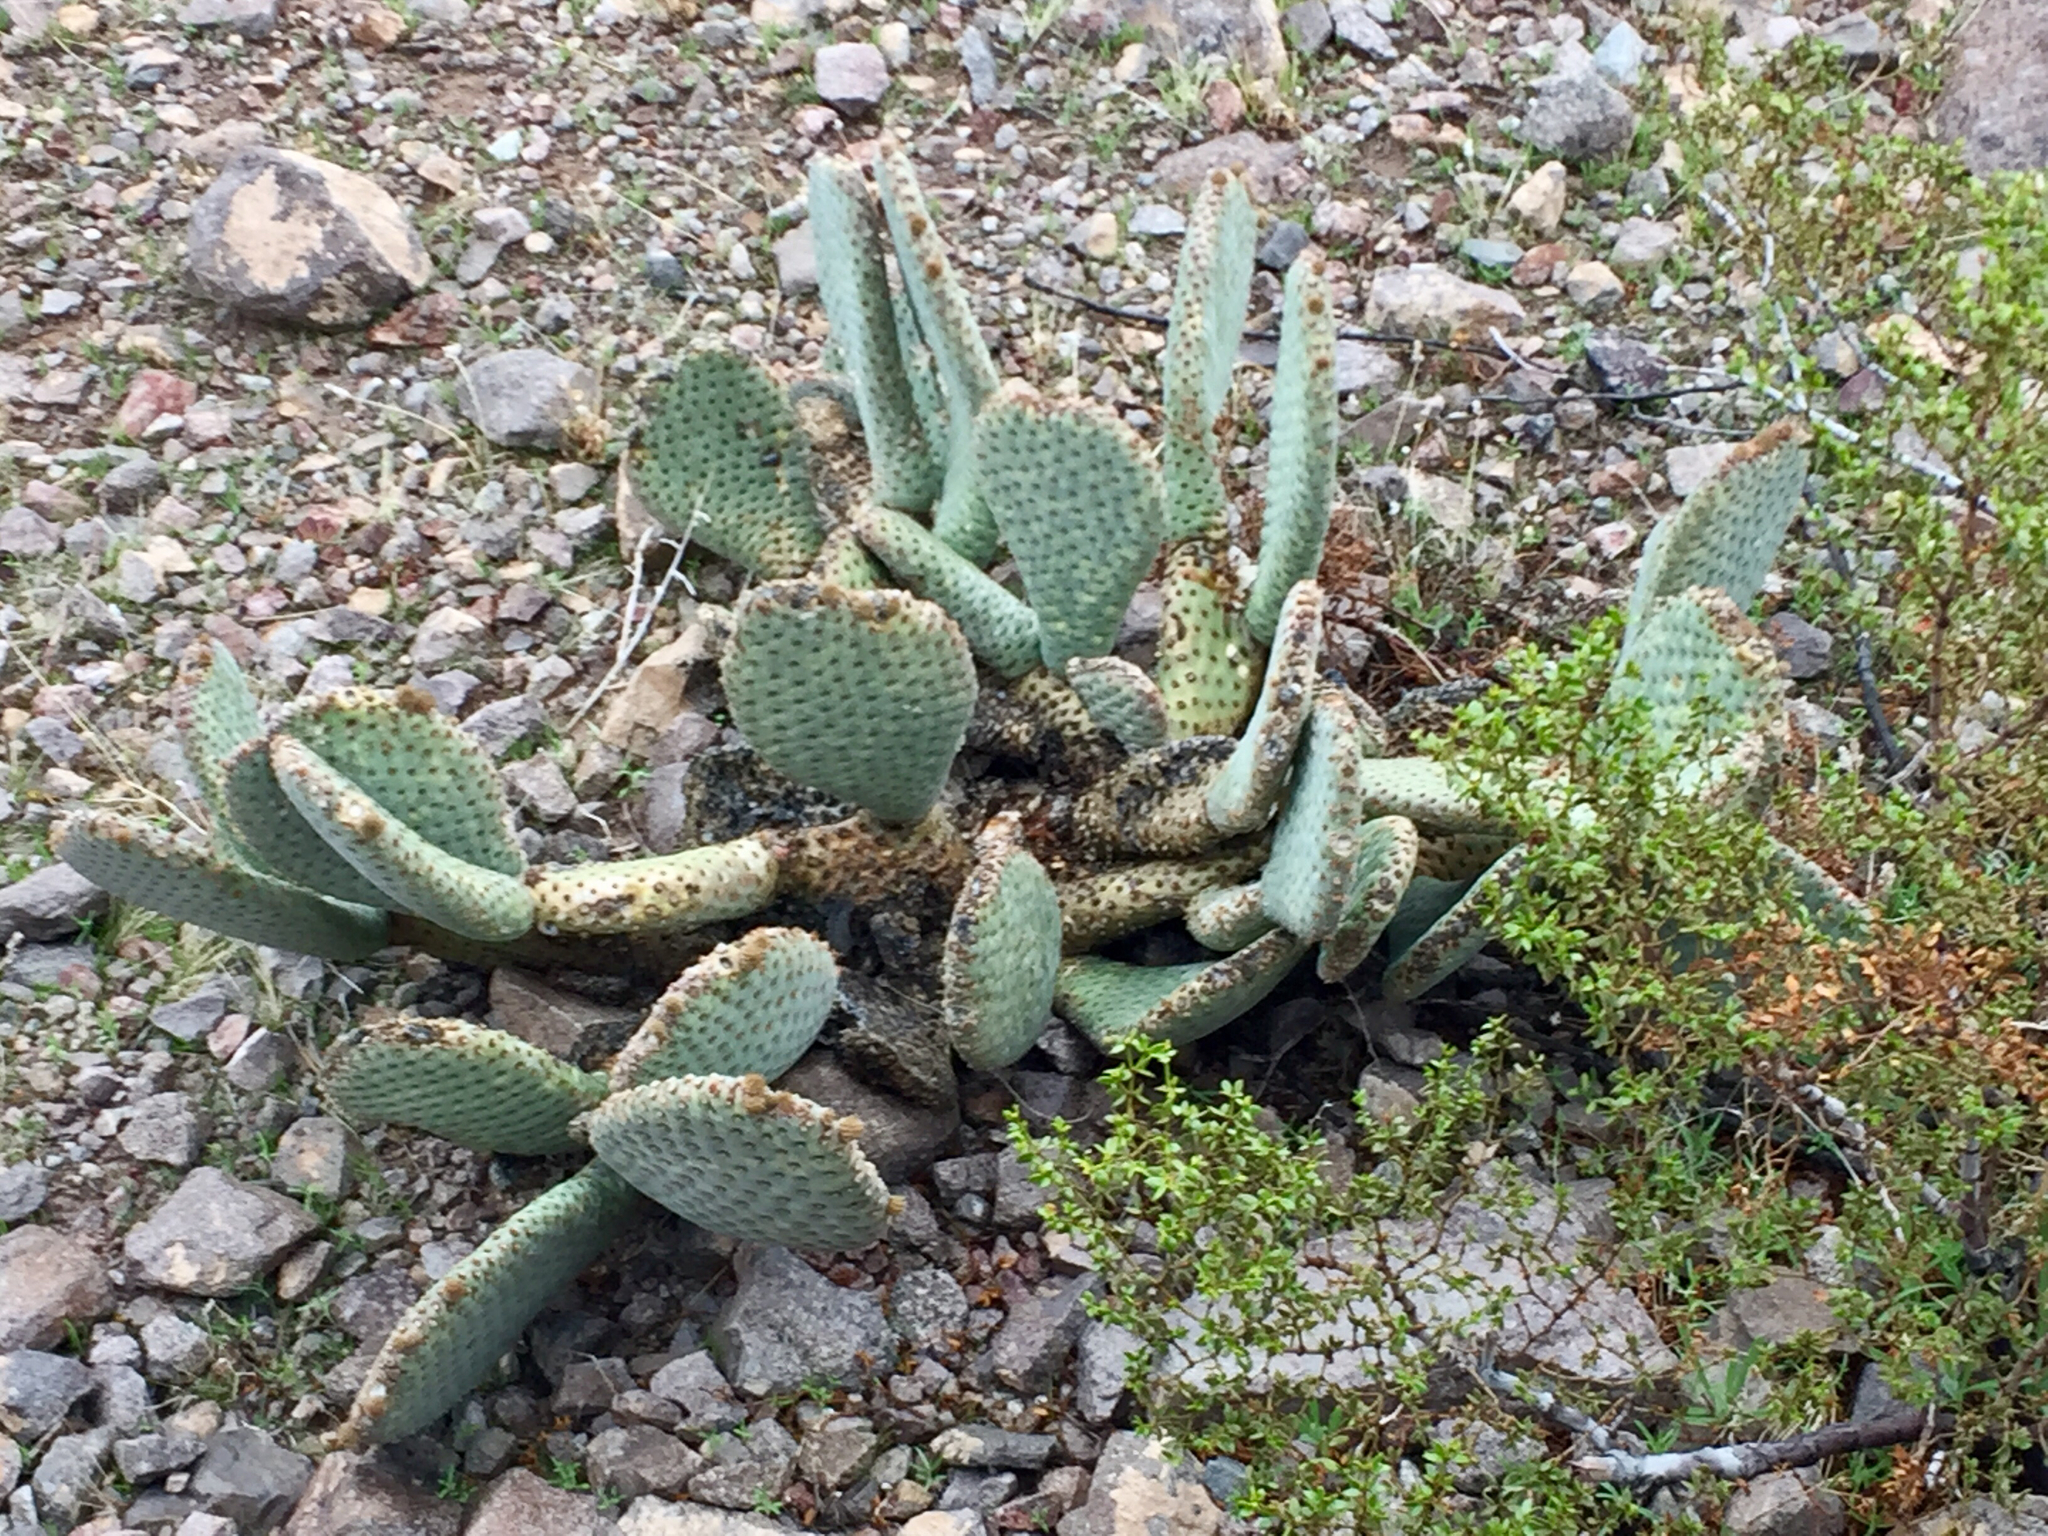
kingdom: Plantae
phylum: Tracheophyta
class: Magnoliopsida
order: Caryophyllales
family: Cactaceae
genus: Opuntia
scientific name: Opuntia basilaris
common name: Beavertail prickly-pear
